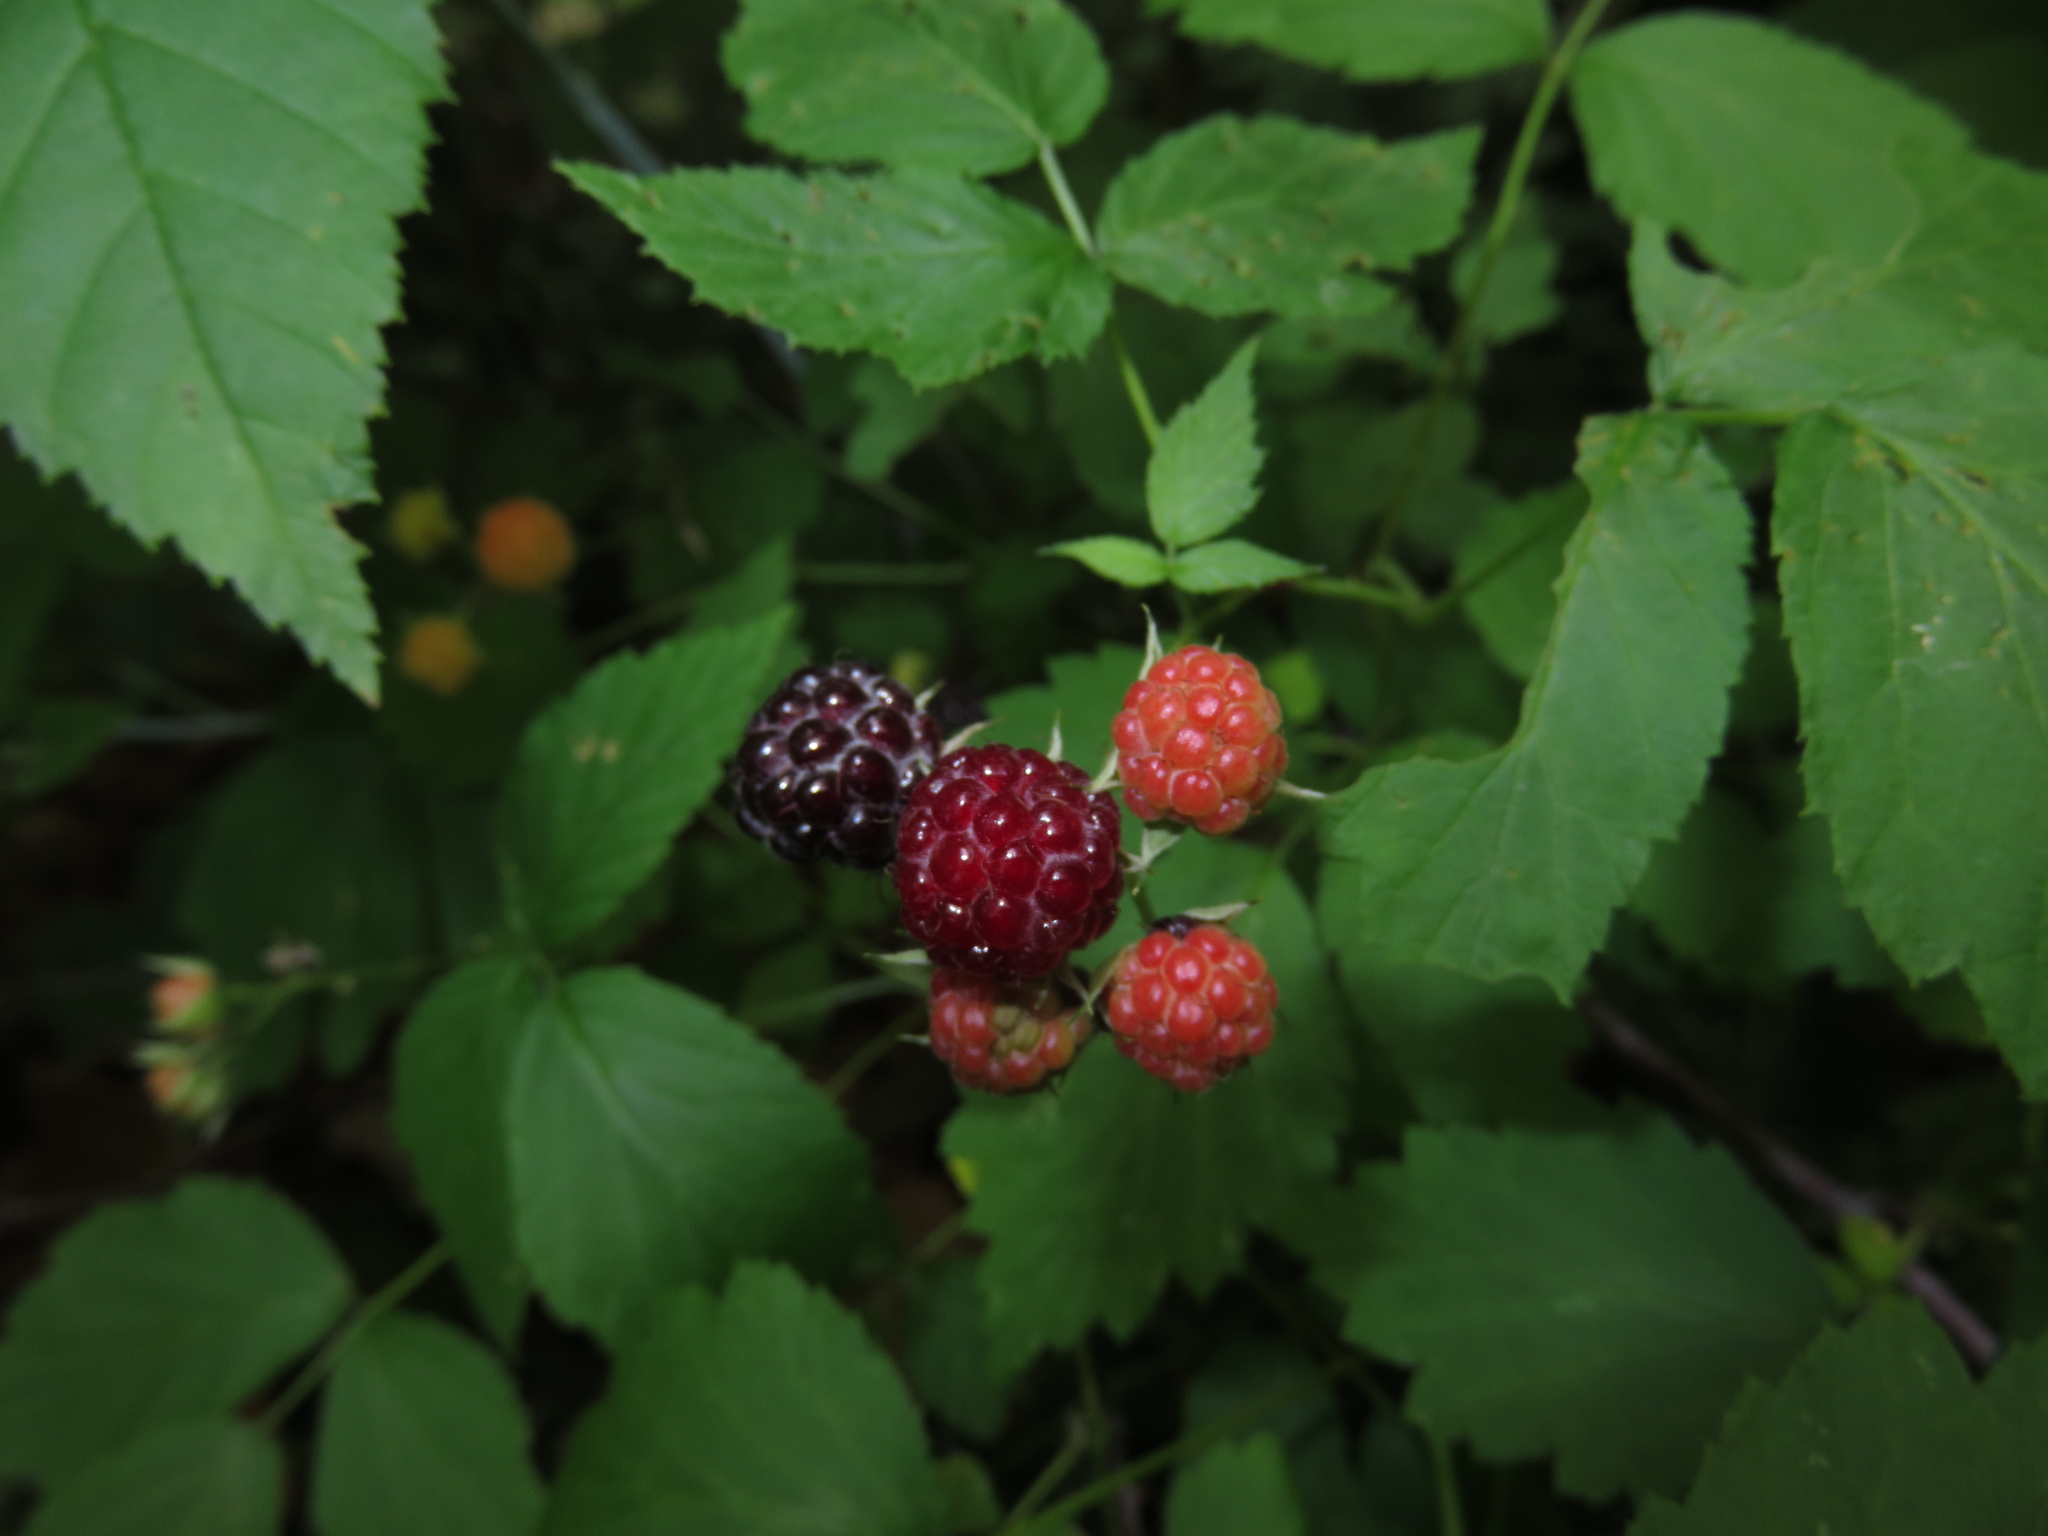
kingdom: Plantae
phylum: Tracheophyta
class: Magnoliopsida
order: Rosales
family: Rosaceae
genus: Rubus
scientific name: Rubus occidentalis
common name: Black raspberry
